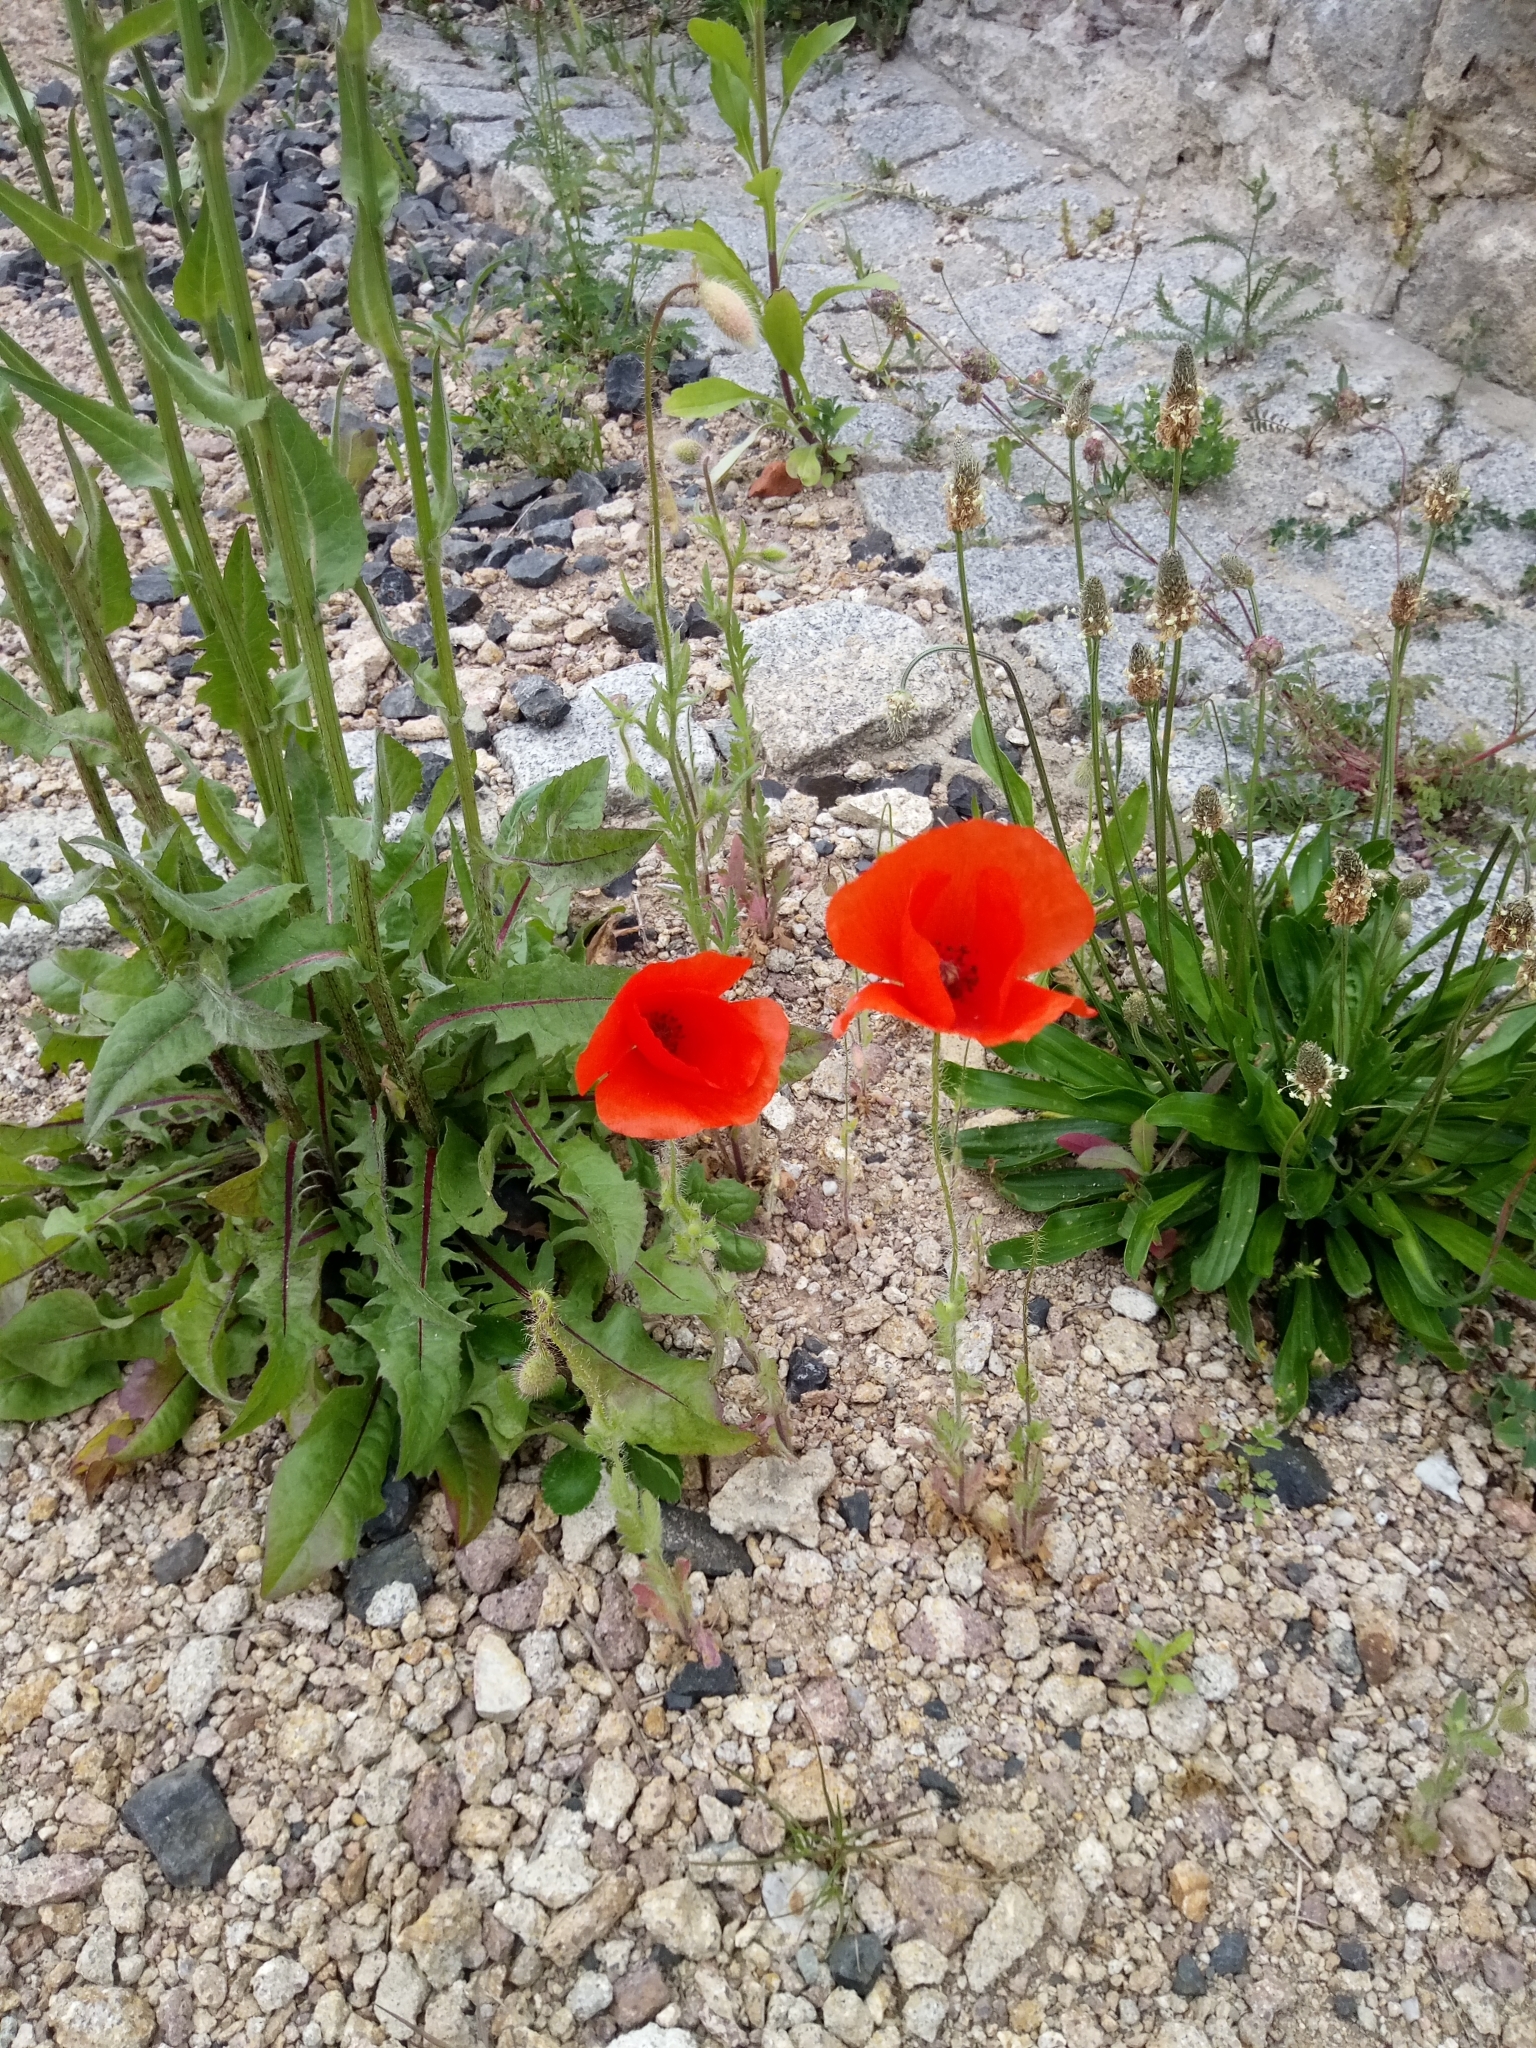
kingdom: Plantae
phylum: Tracheophyta
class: Magnoliopsida
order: Ranunculales
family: Papaveraceae
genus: Papaver
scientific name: Papaver rhoeas
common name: Corn poppy
